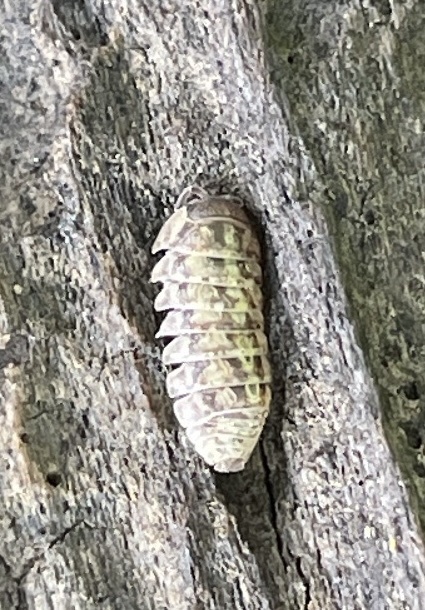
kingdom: Animalia
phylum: Arthropoda
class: Malacostraca
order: Isopoda
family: Armadillidiidae
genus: Armadillidium
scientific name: Armadillidium vulgare
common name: Common pill woodlouse
